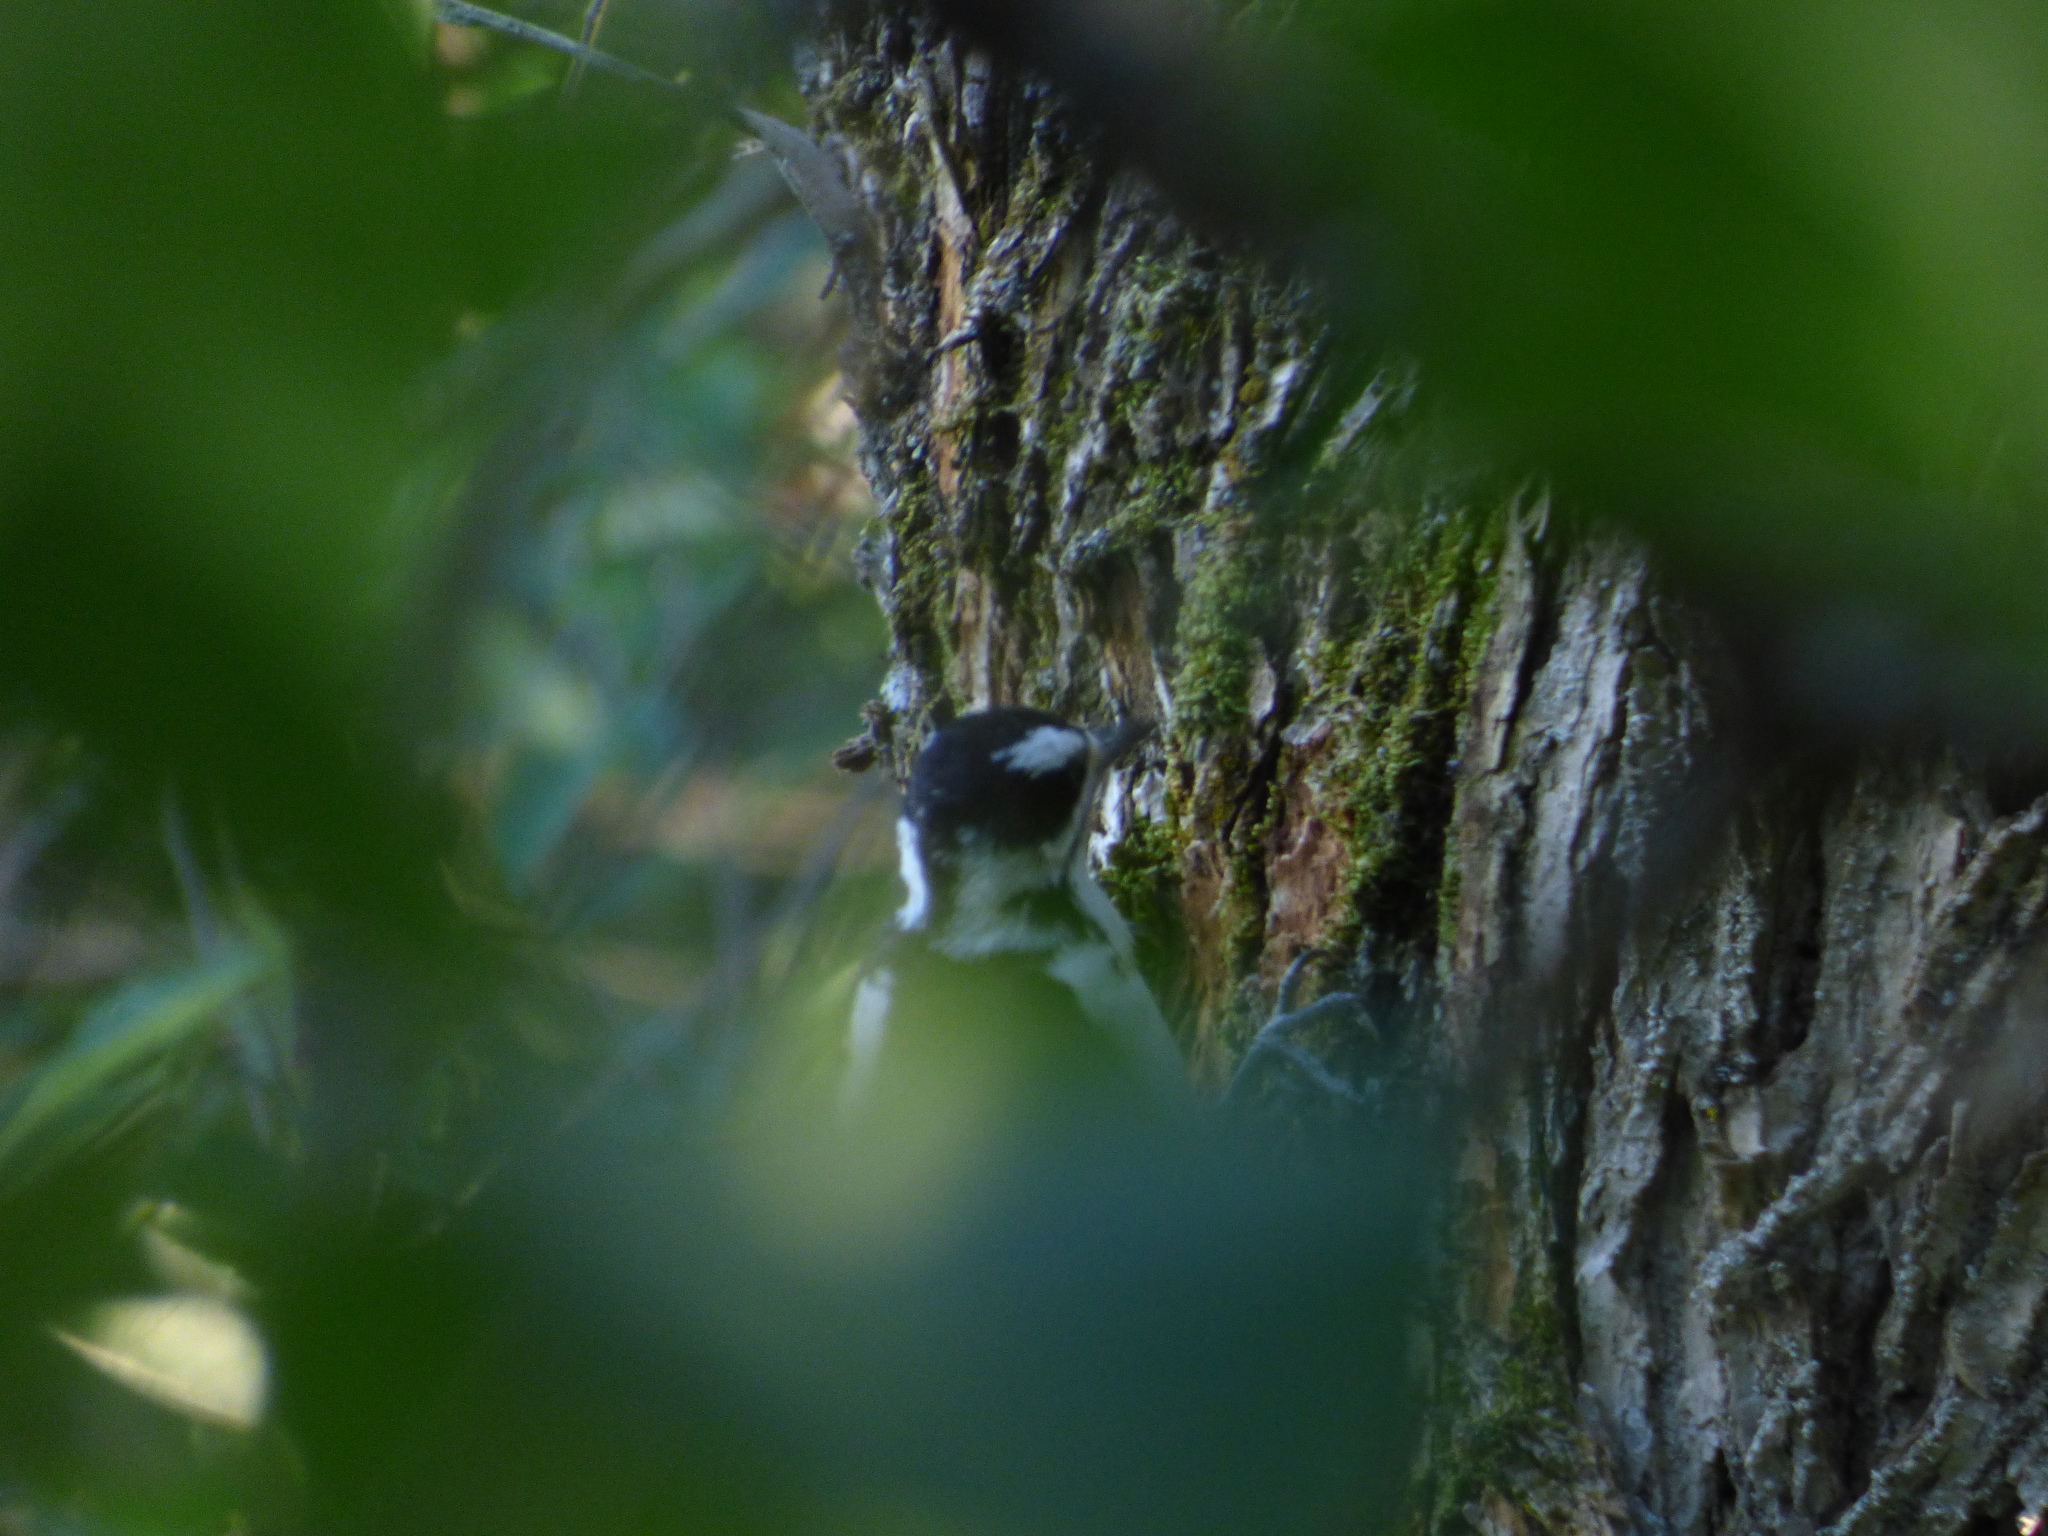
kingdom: Animalia
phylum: Chordata
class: Aves
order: Piciformes
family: Picidae
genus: Leuconotopicus
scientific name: Leuconotopicus villosus
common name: Hairy woodpecker
